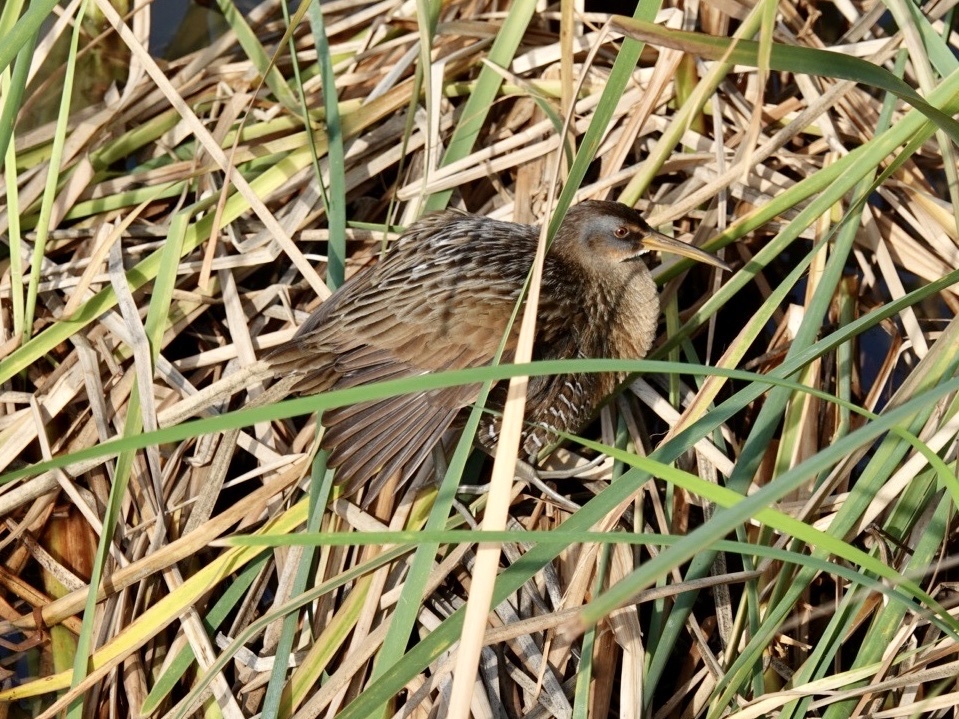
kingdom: Animalia
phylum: Chordata
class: Aves
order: Gruiformes
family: Rallidae
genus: Rallus
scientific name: Rallus crepitans
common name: Clapper rail
